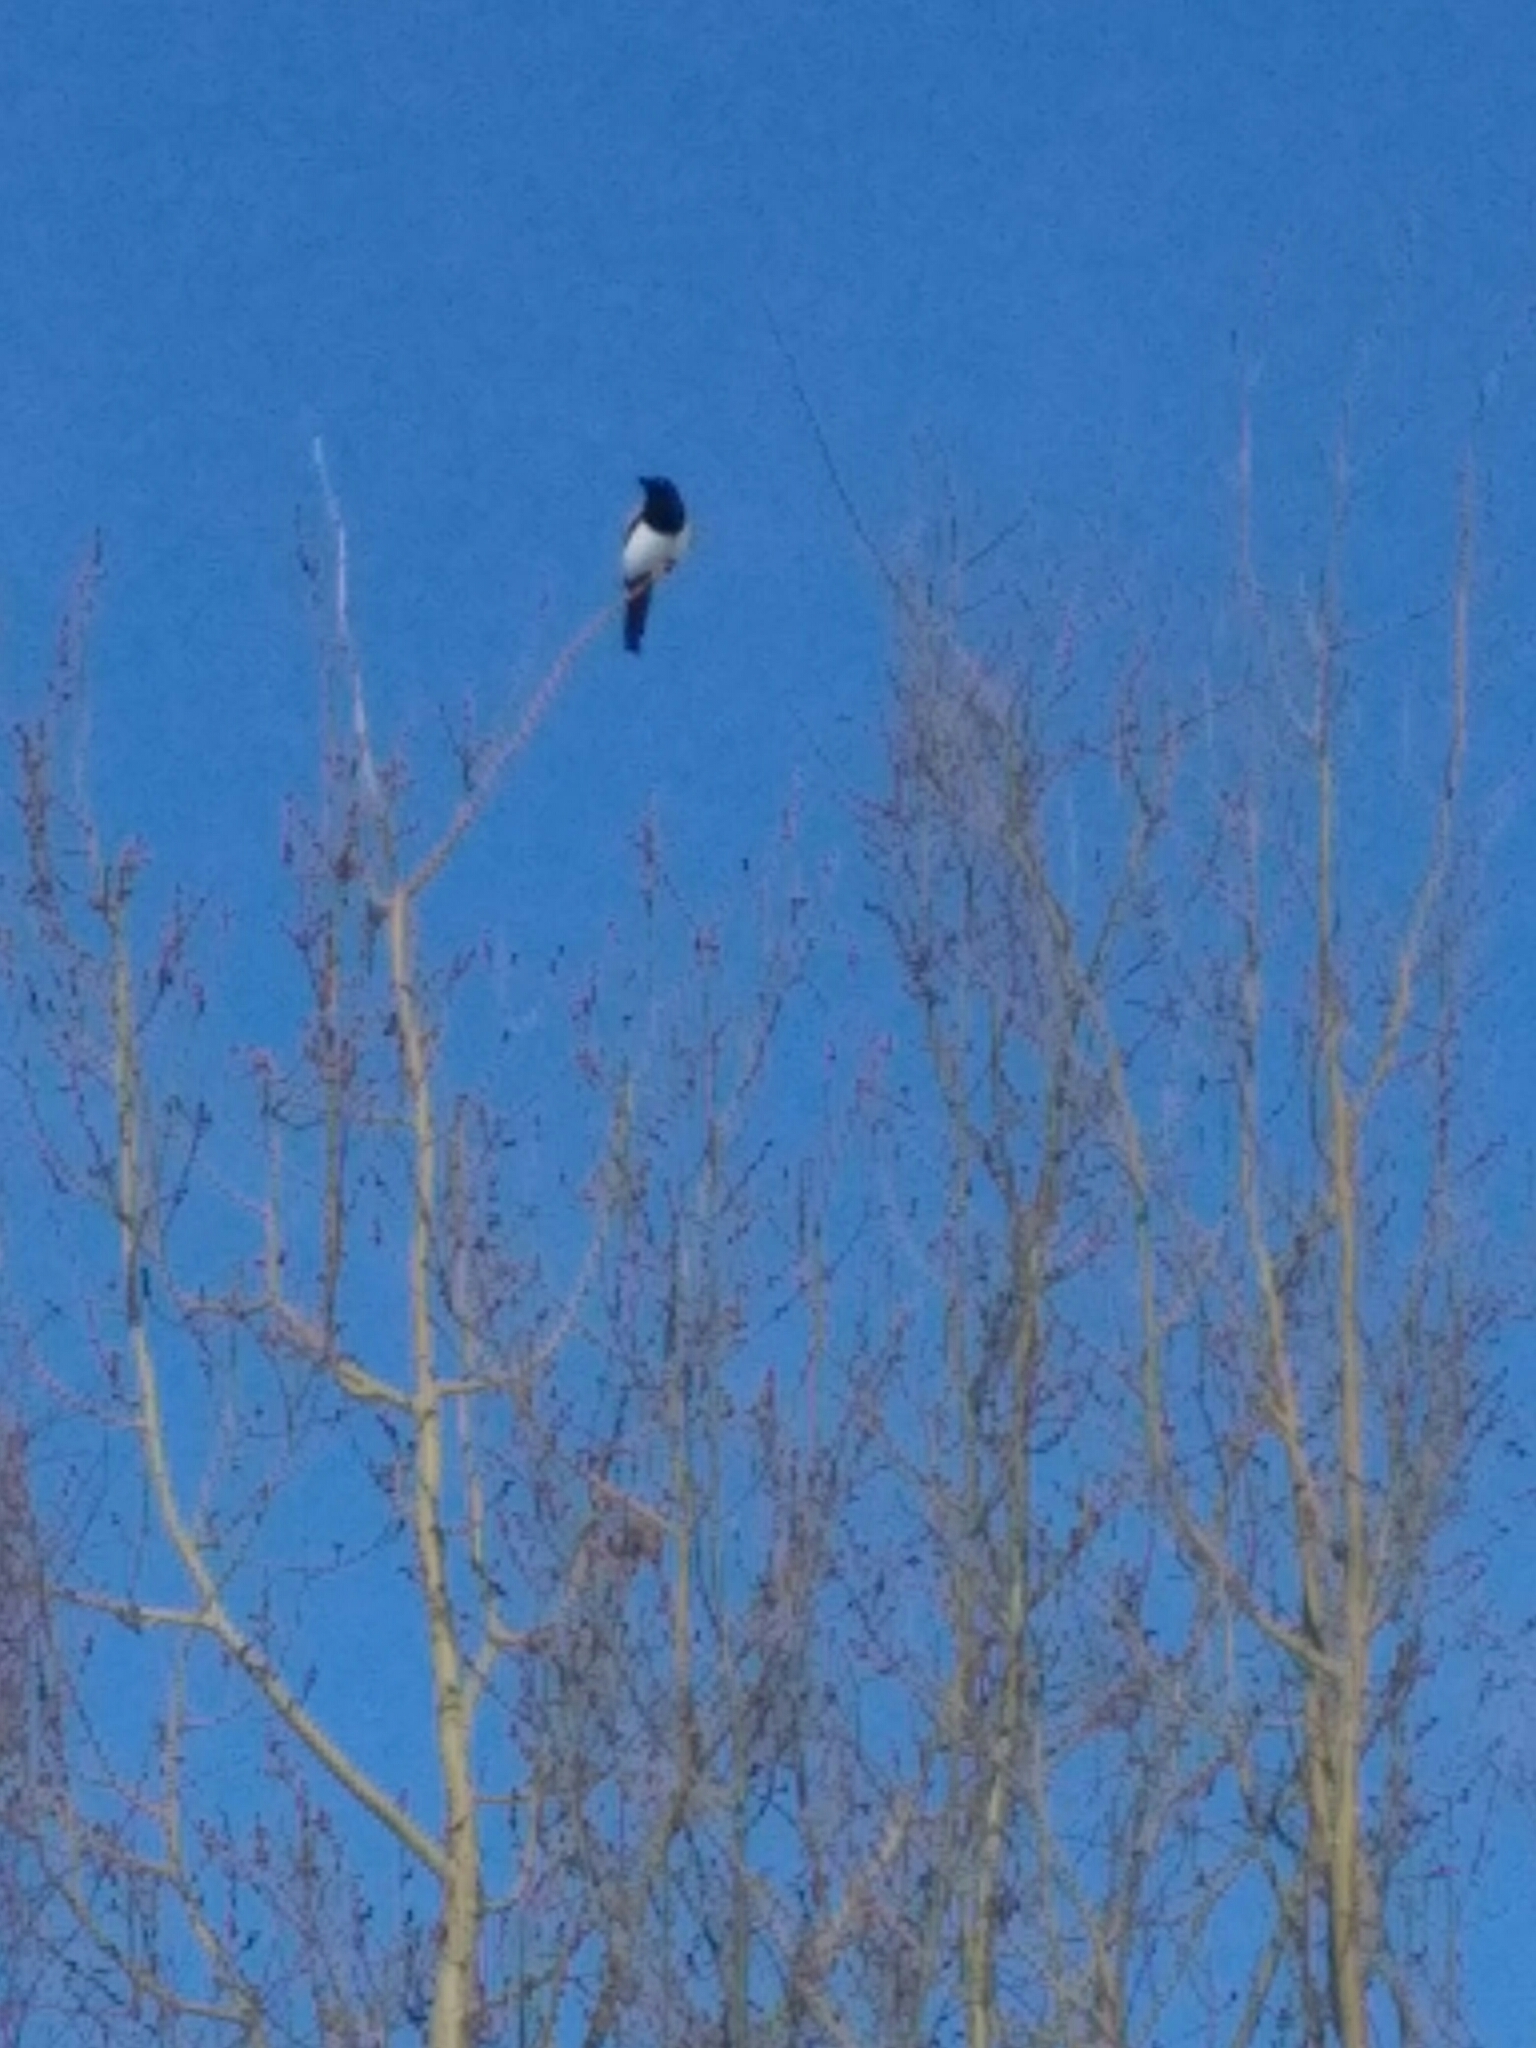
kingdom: Animalia
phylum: Chordata
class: Aves
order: Passeriformes
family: Corvidae
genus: Pica
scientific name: Pica pica
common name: Eurasian magpie
